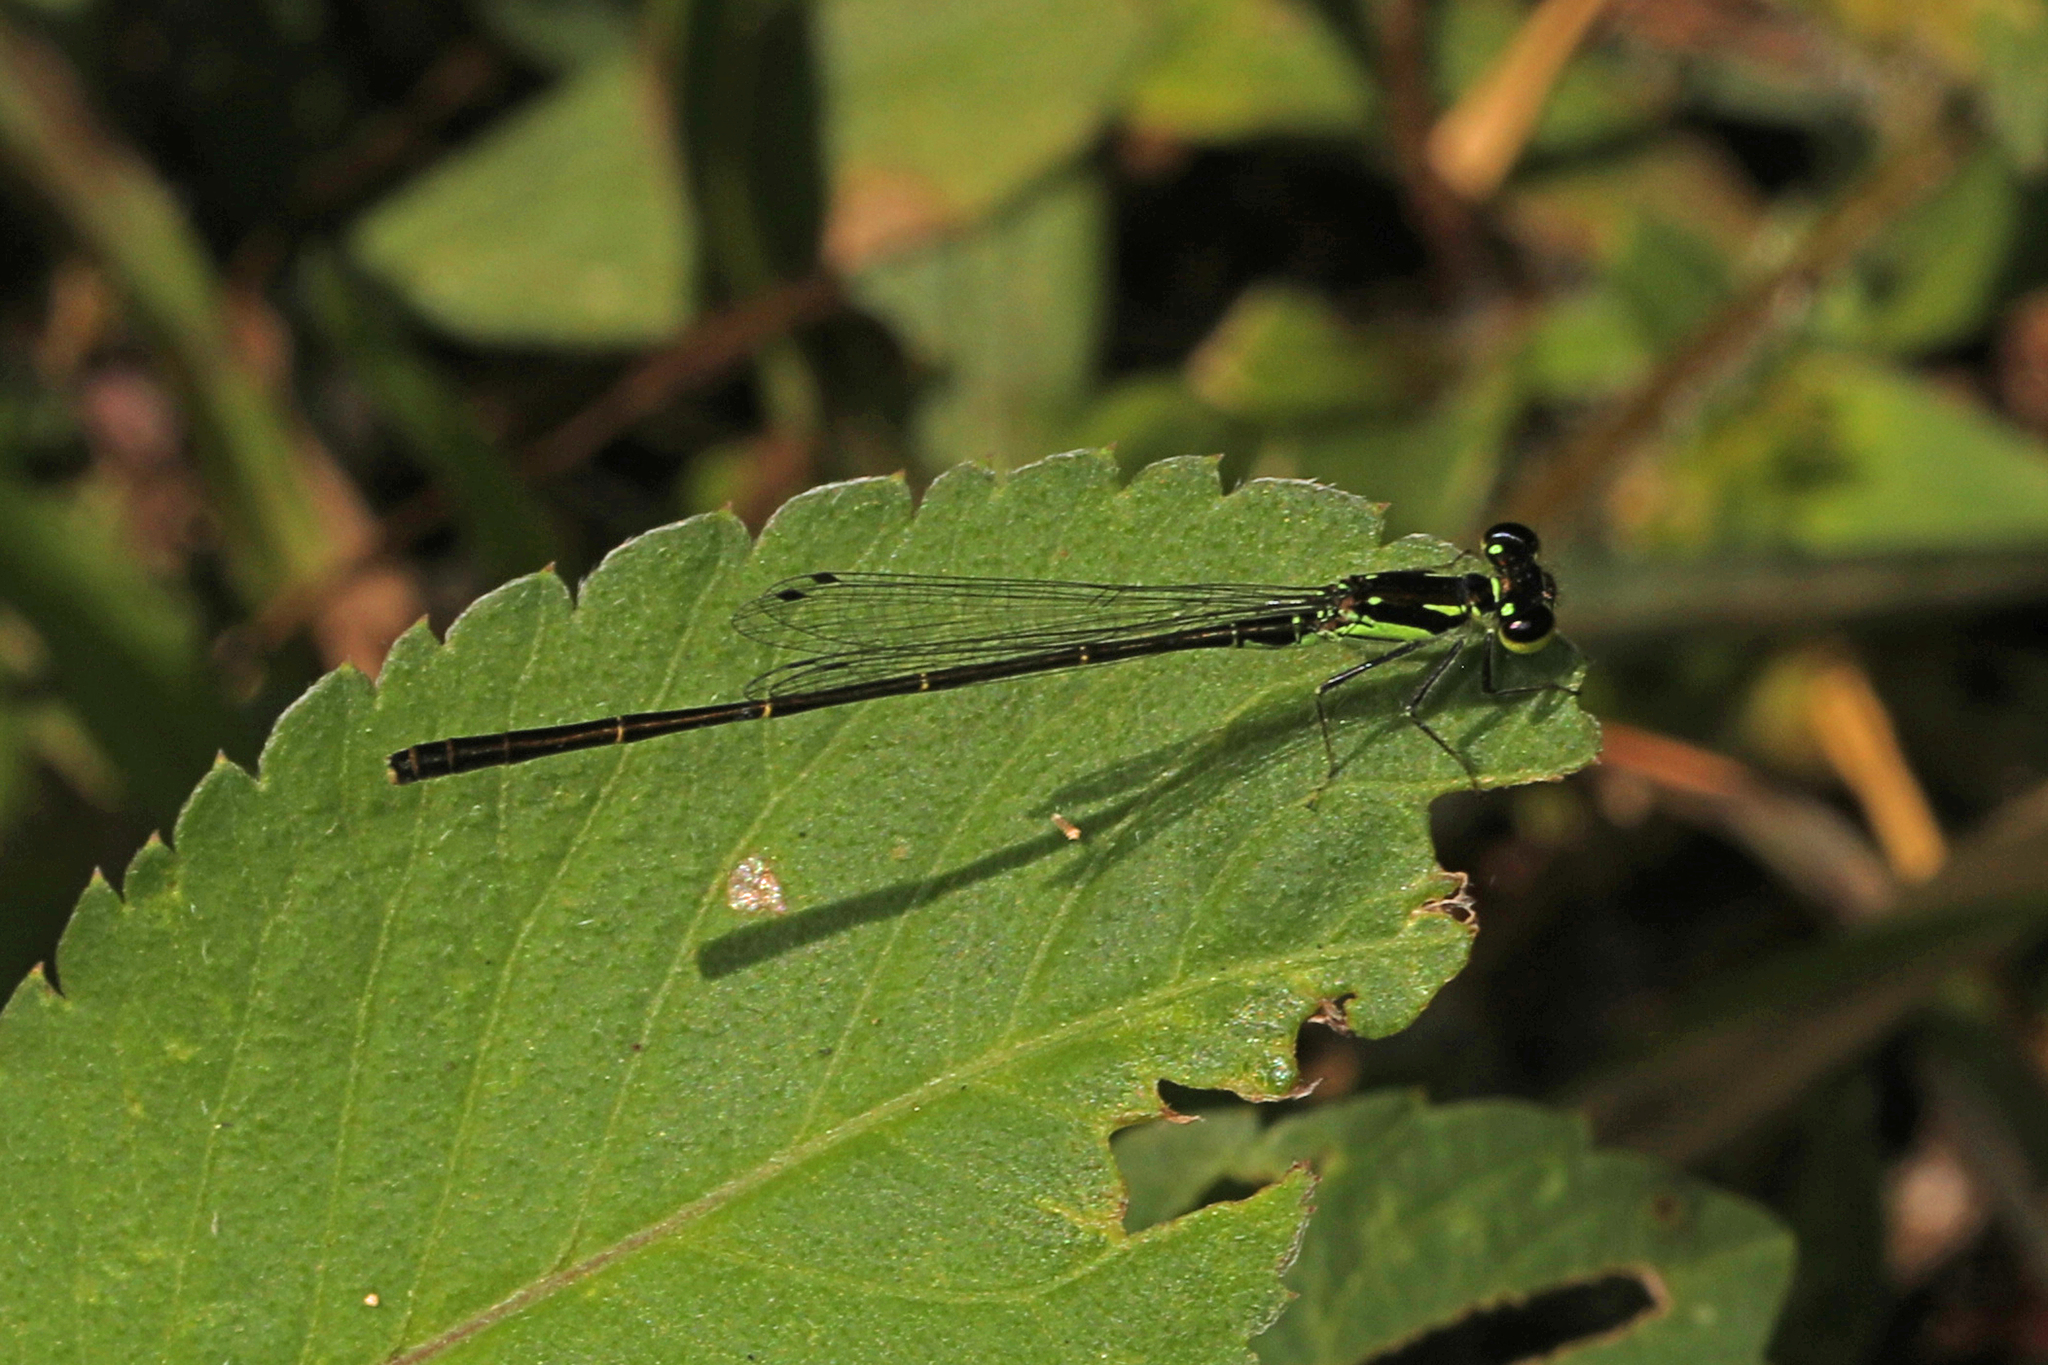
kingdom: Animalia
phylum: Arthropoda
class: Insecta
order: Odonata
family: Coenagrionidae
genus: Ischnura
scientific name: Ischnura posita
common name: Fragile forktail
